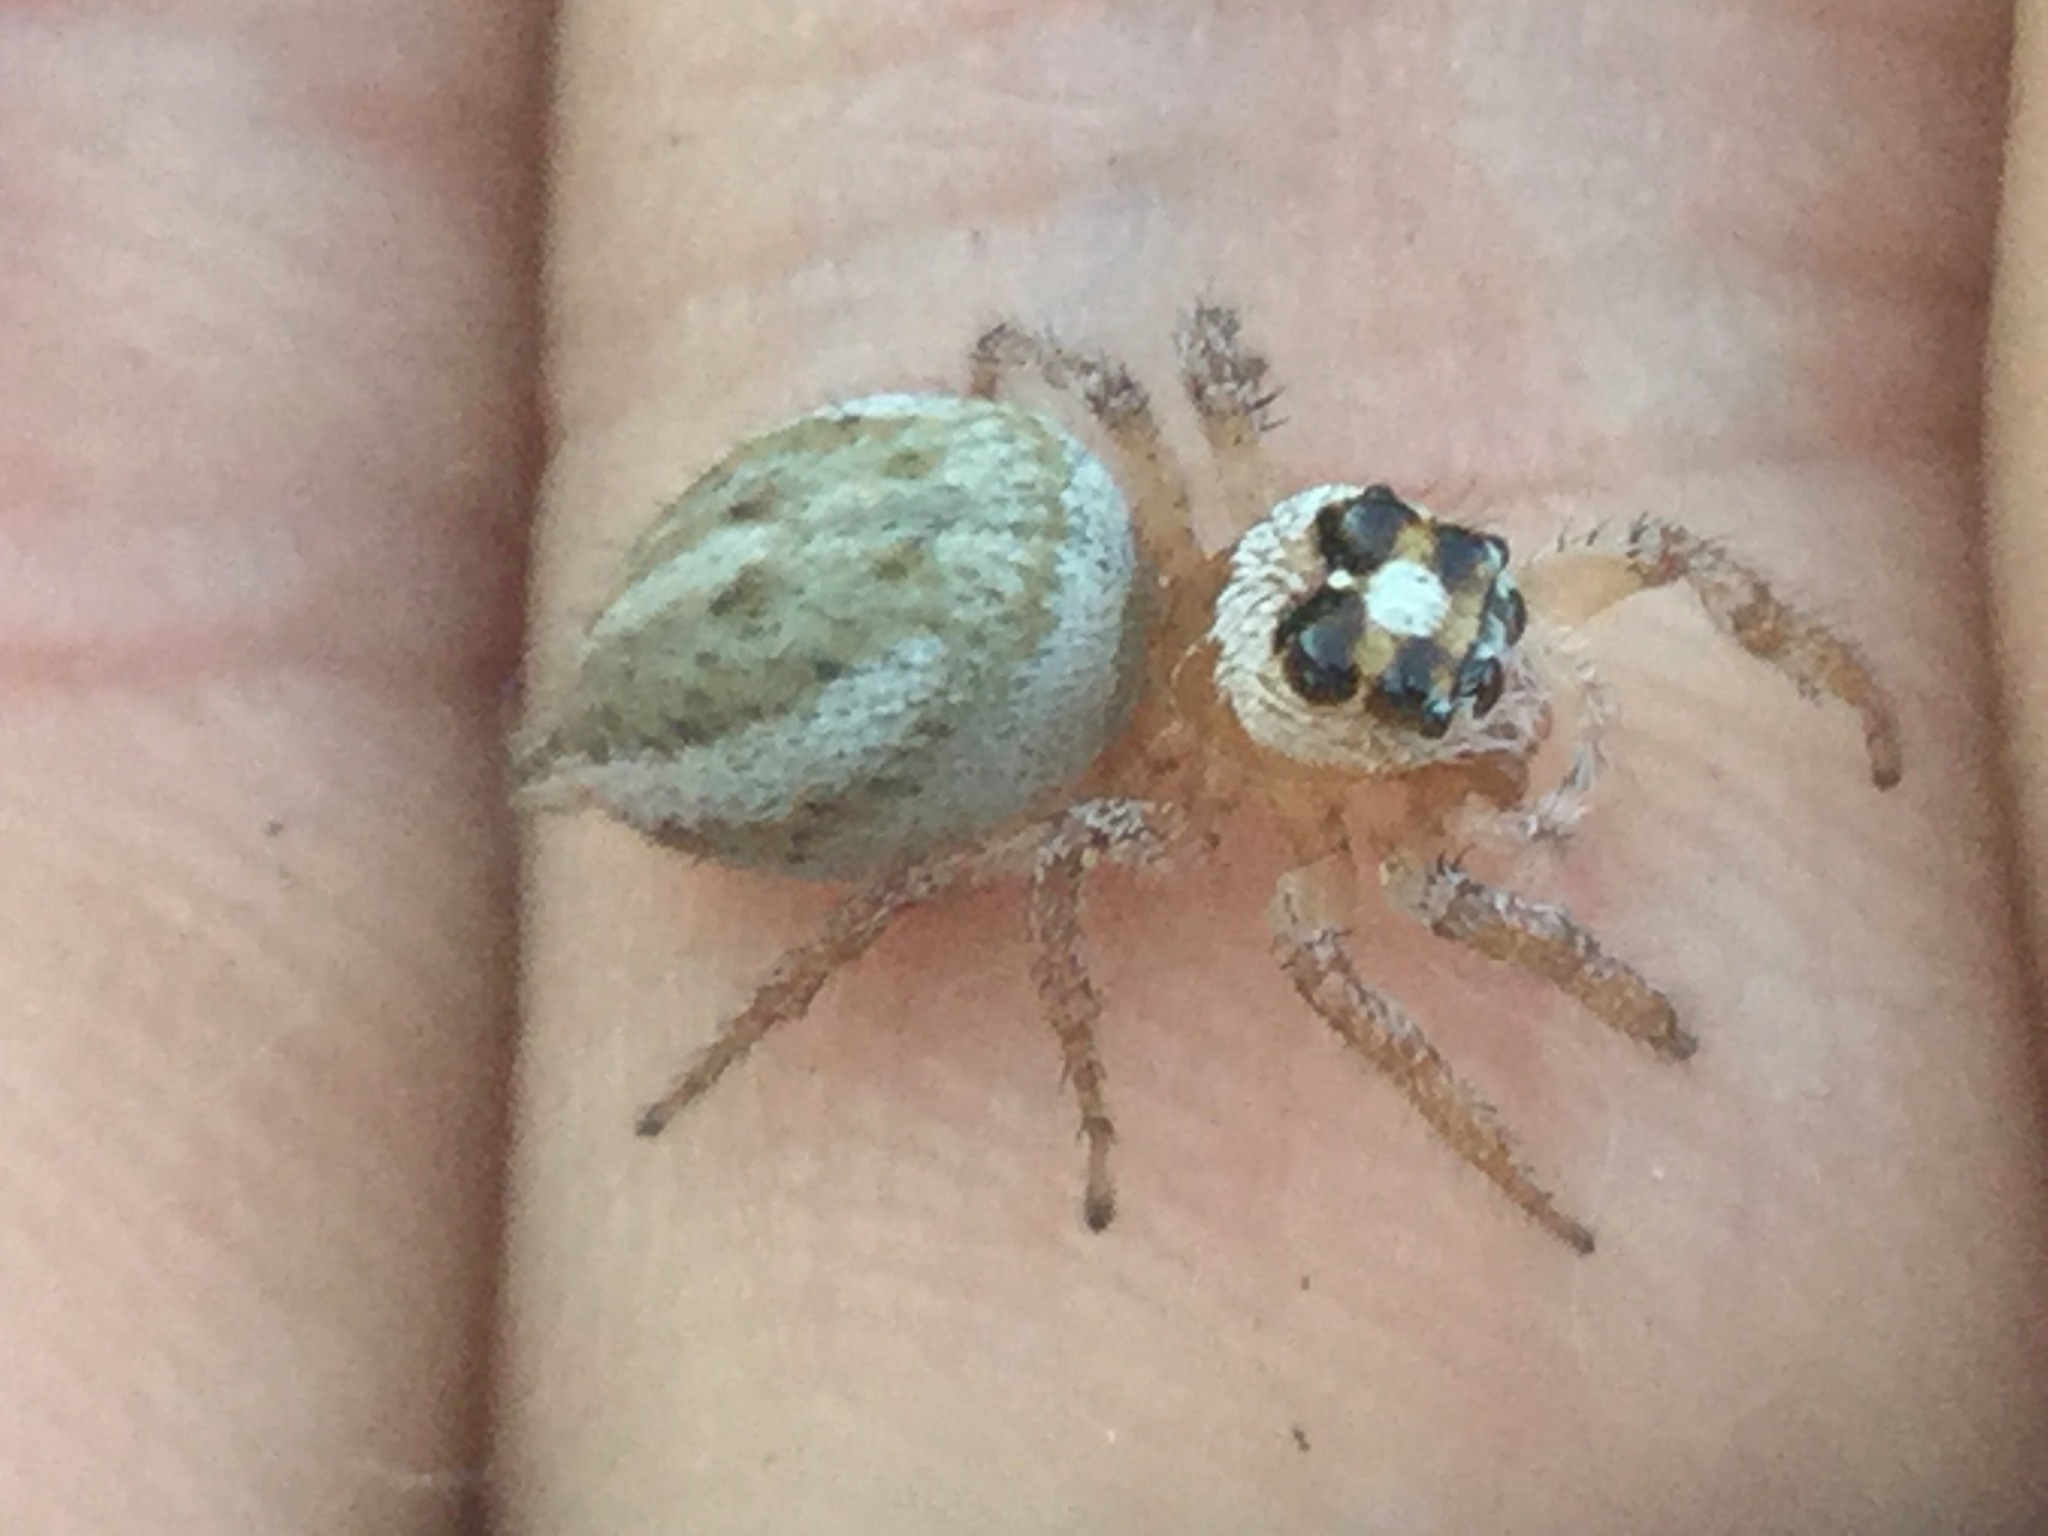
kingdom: Animalia
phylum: Arthropoda
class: Arachnida
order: Araneae
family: Salticidae
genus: Colonus
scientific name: Colonus hesperus
